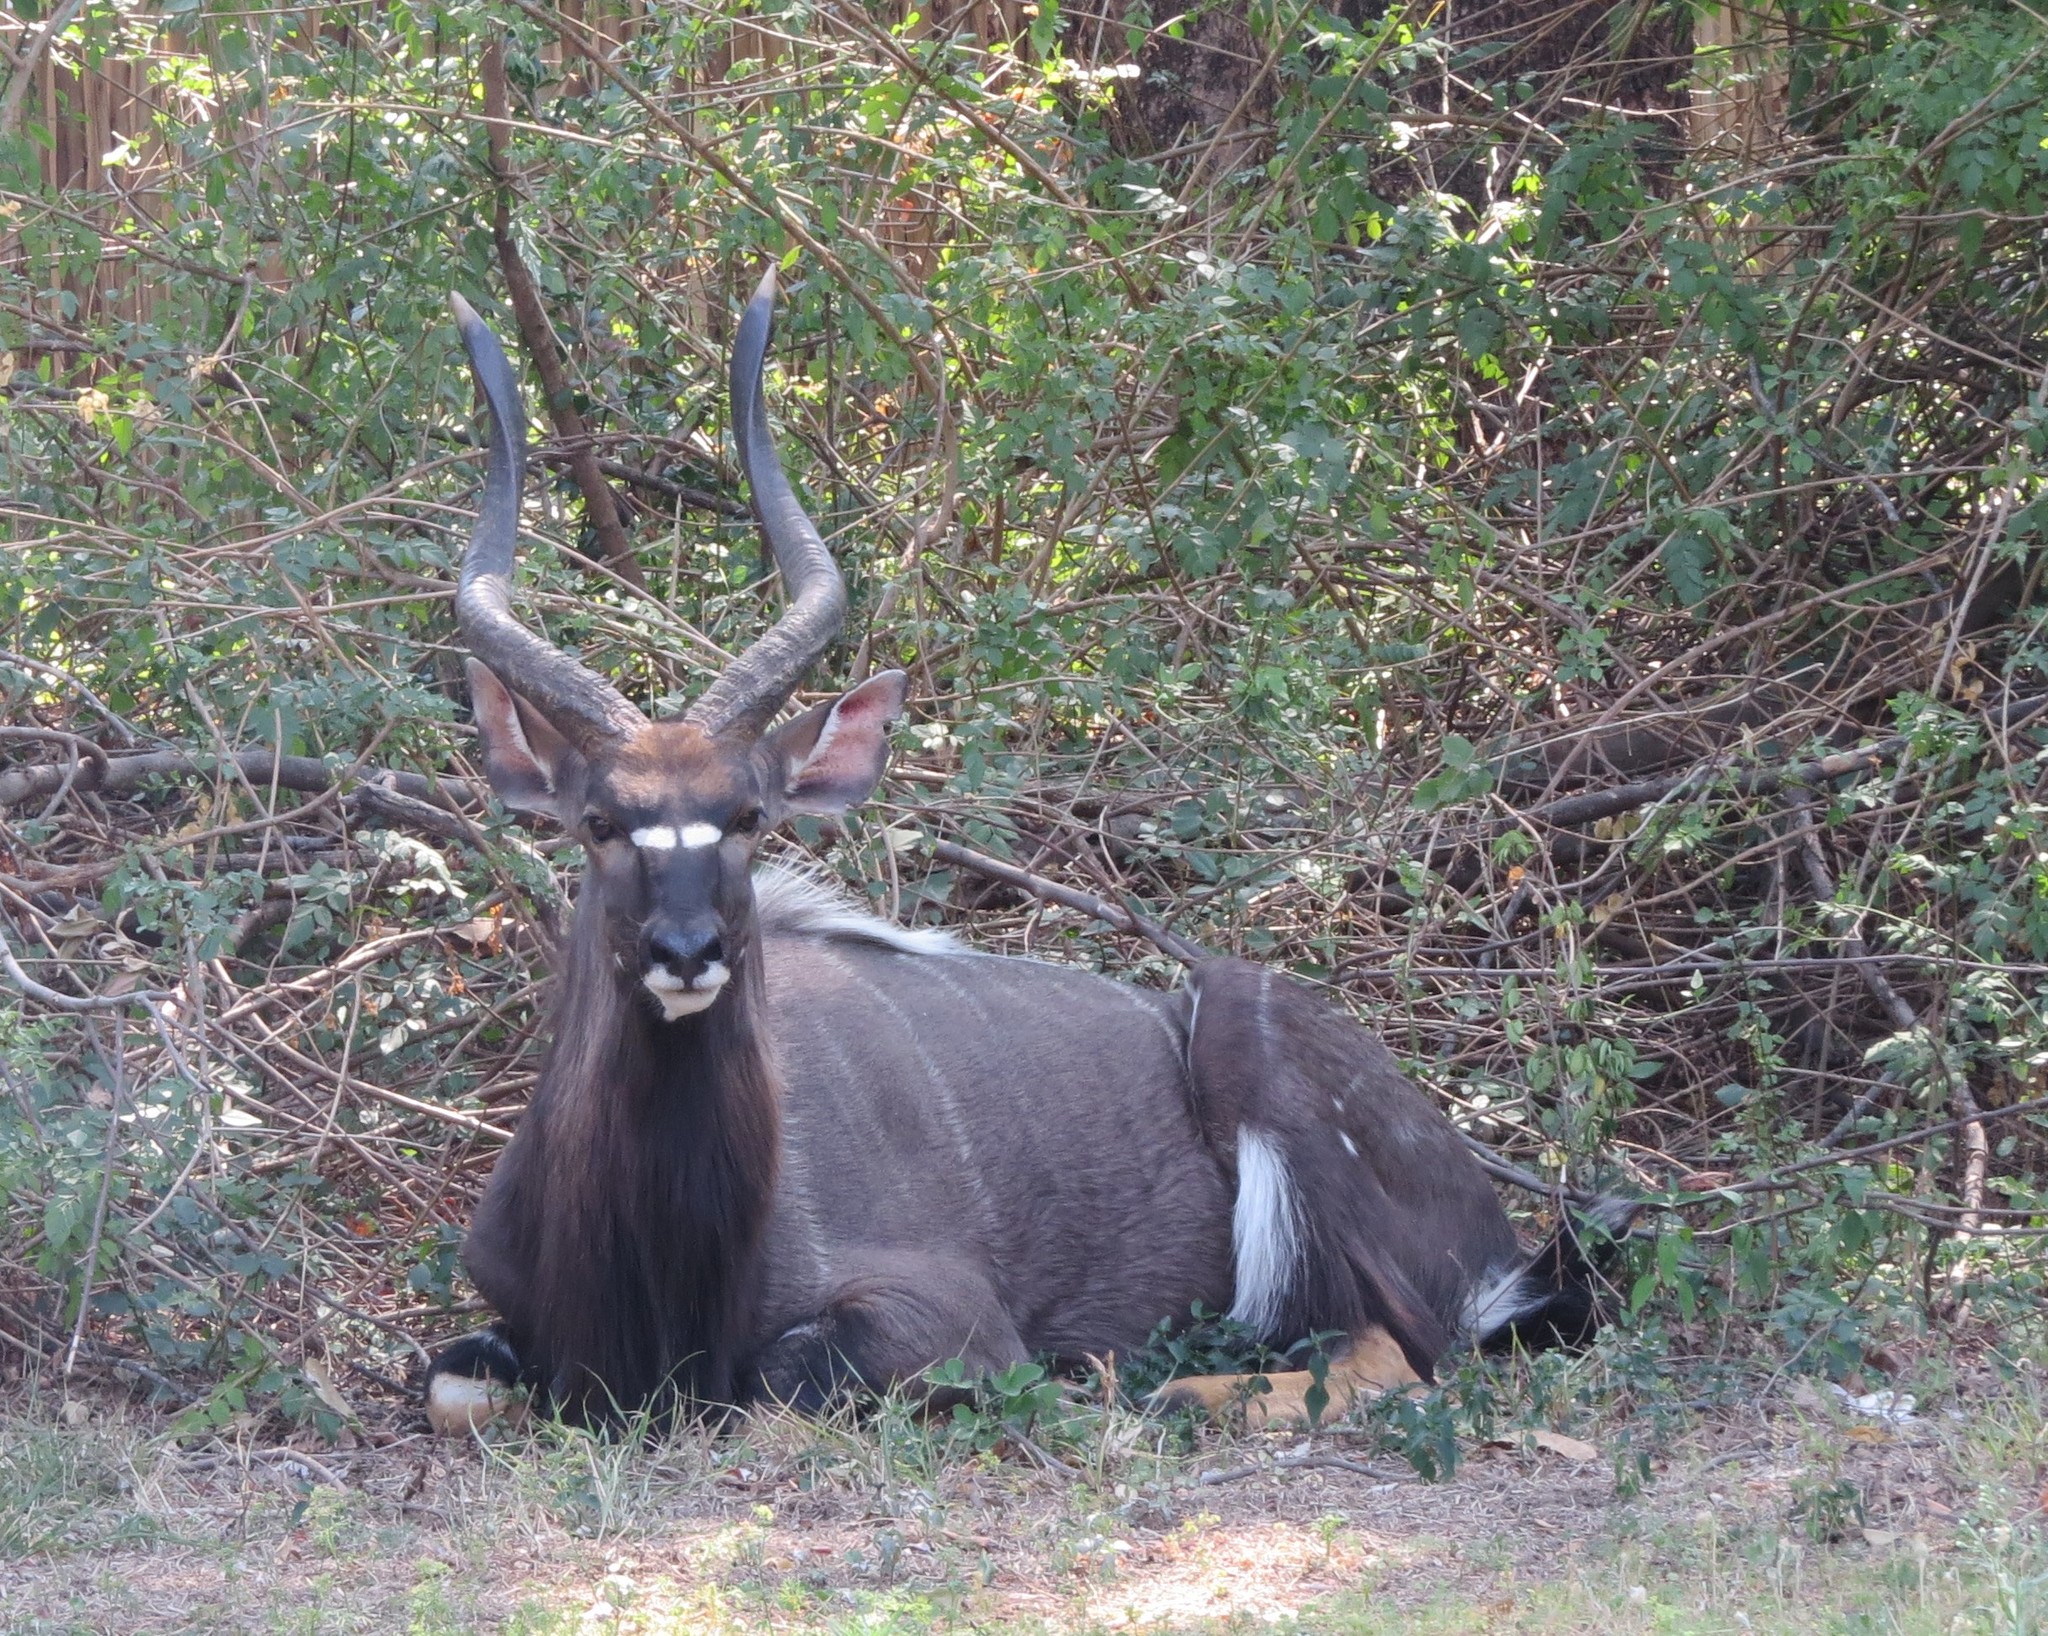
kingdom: Animalia
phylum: Chordata
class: Mammalia
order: Artiodactyla
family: Bovidae
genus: Tragelaphus
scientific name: Tragelaphus angasii
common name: Nyala
